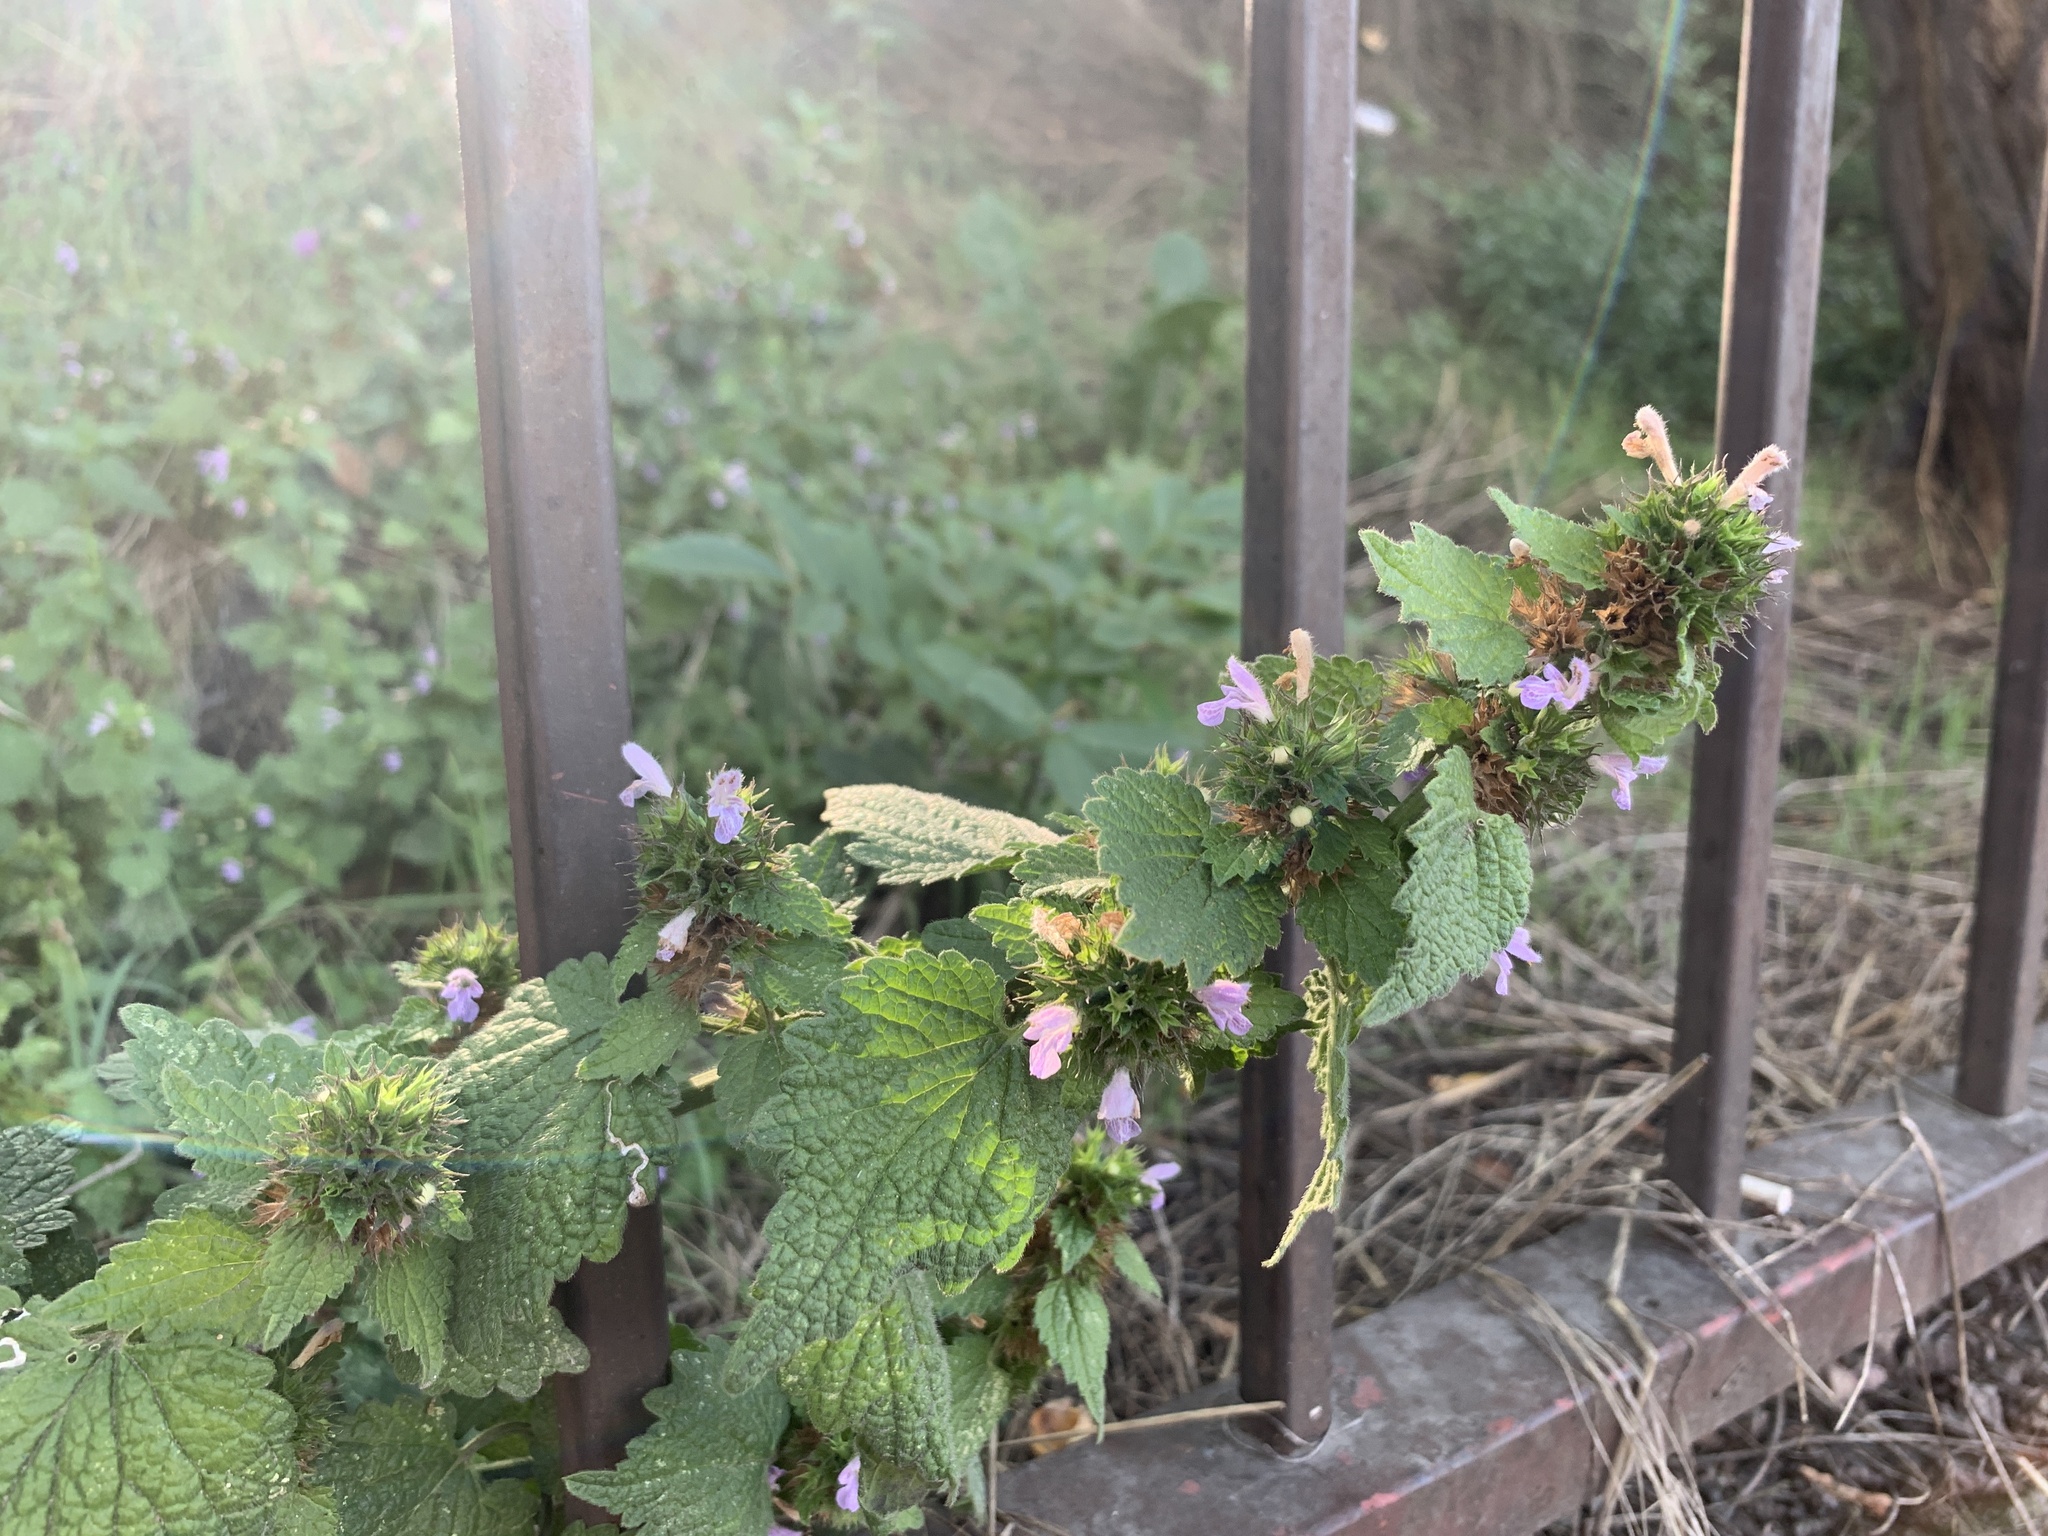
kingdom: Plantae
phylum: Tracheophyta
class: Magnoliopsida
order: Lamiales
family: Lamiaceae
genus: Ballota
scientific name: Ballota nigra
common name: Black horehound
